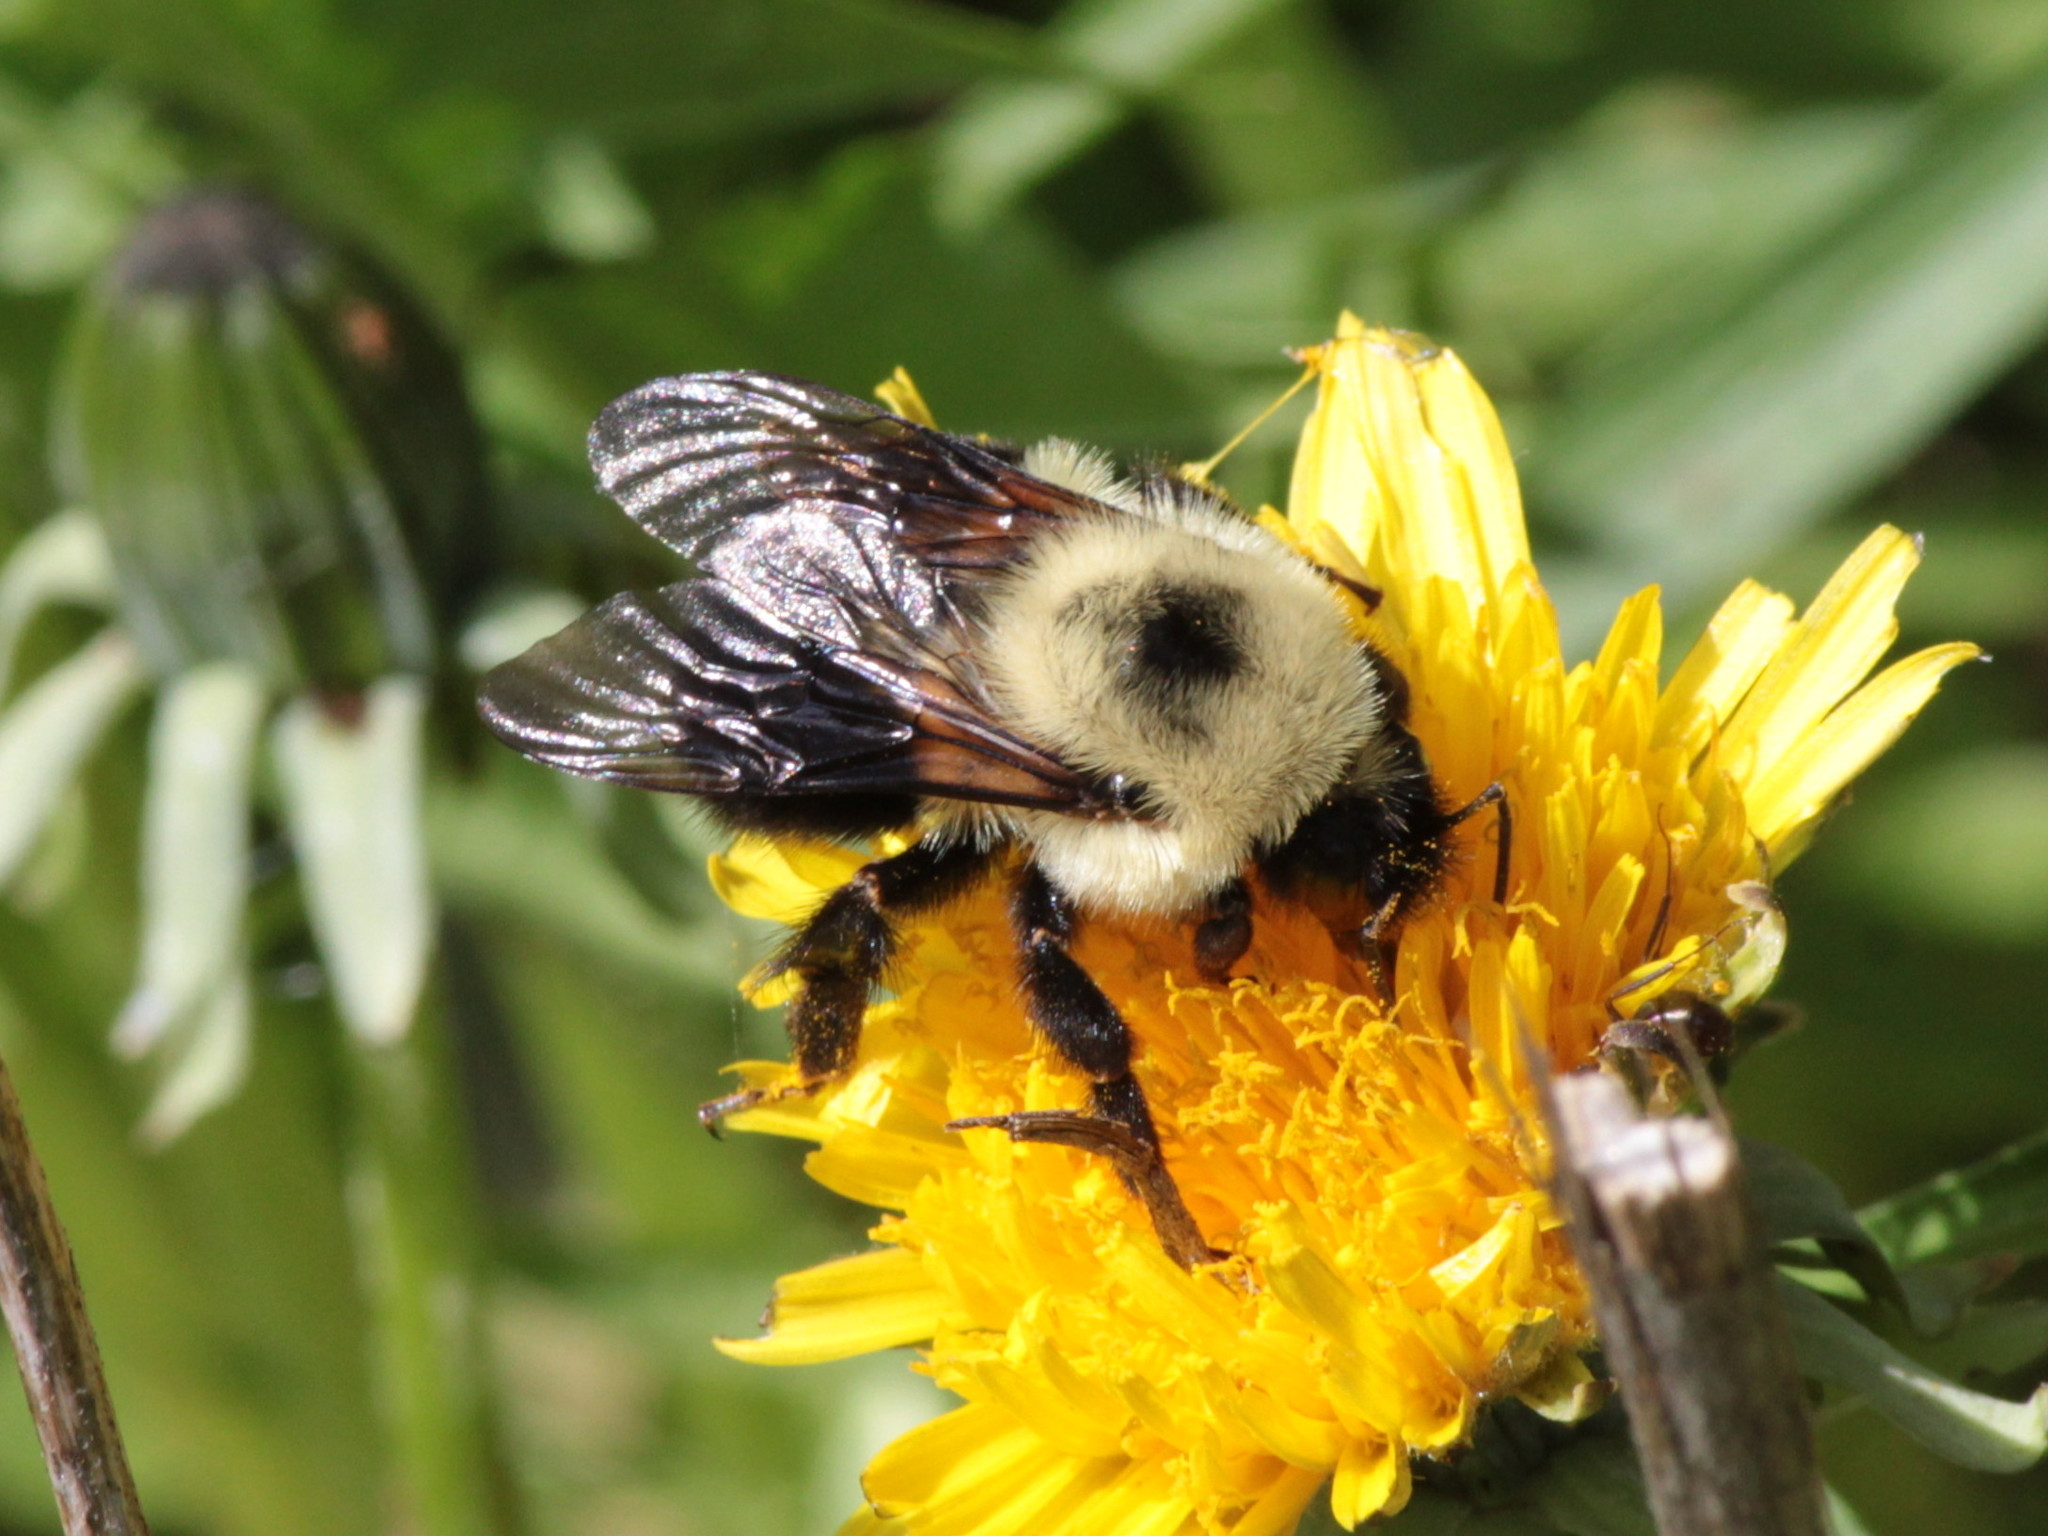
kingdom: Animalia
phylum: Arthropoda
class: Insecta
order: Hymenoptera
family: Apidae
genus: Bombus
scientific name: Bombus bimaculatus
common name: Two-spotted bumble bee
